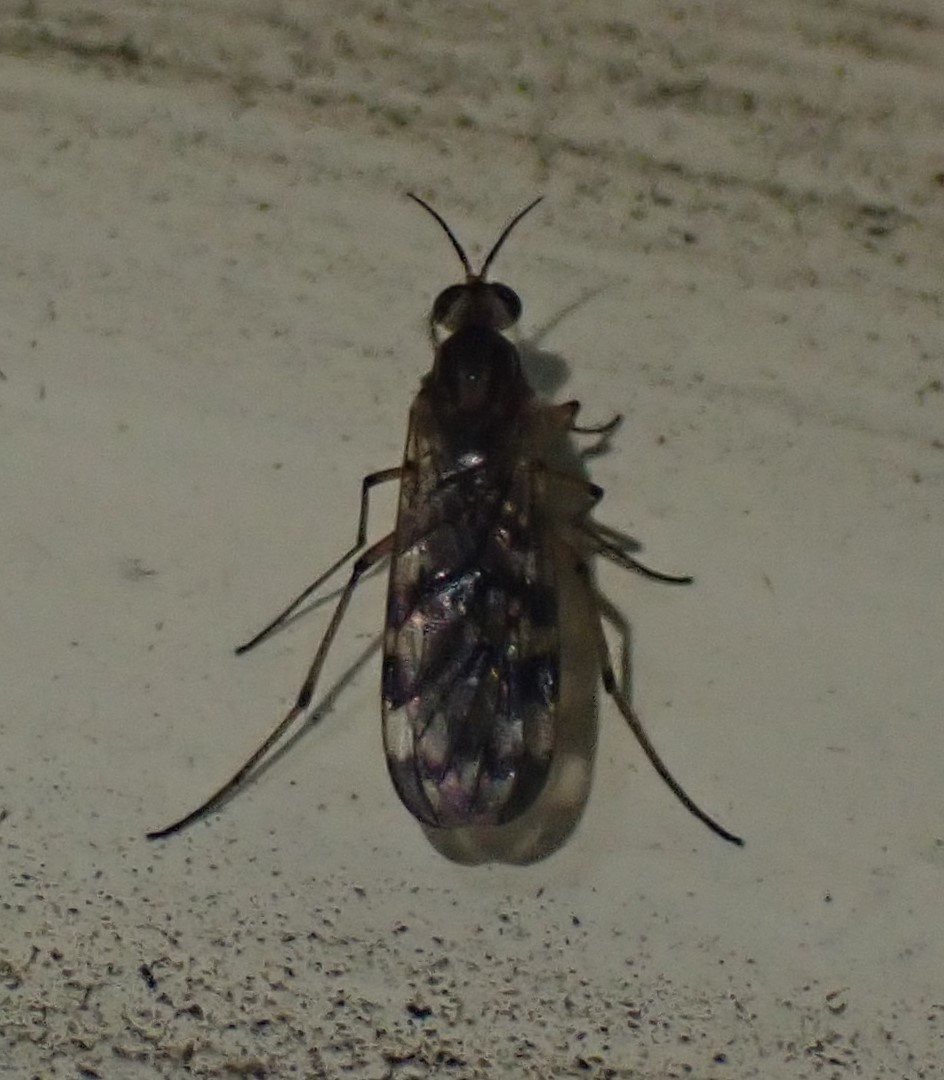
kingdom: Animalia
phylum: Arthropoda
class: Insecta
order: Diptera
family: Anisopodidae
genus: Sylvicola
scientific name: Sylvicola dubius
